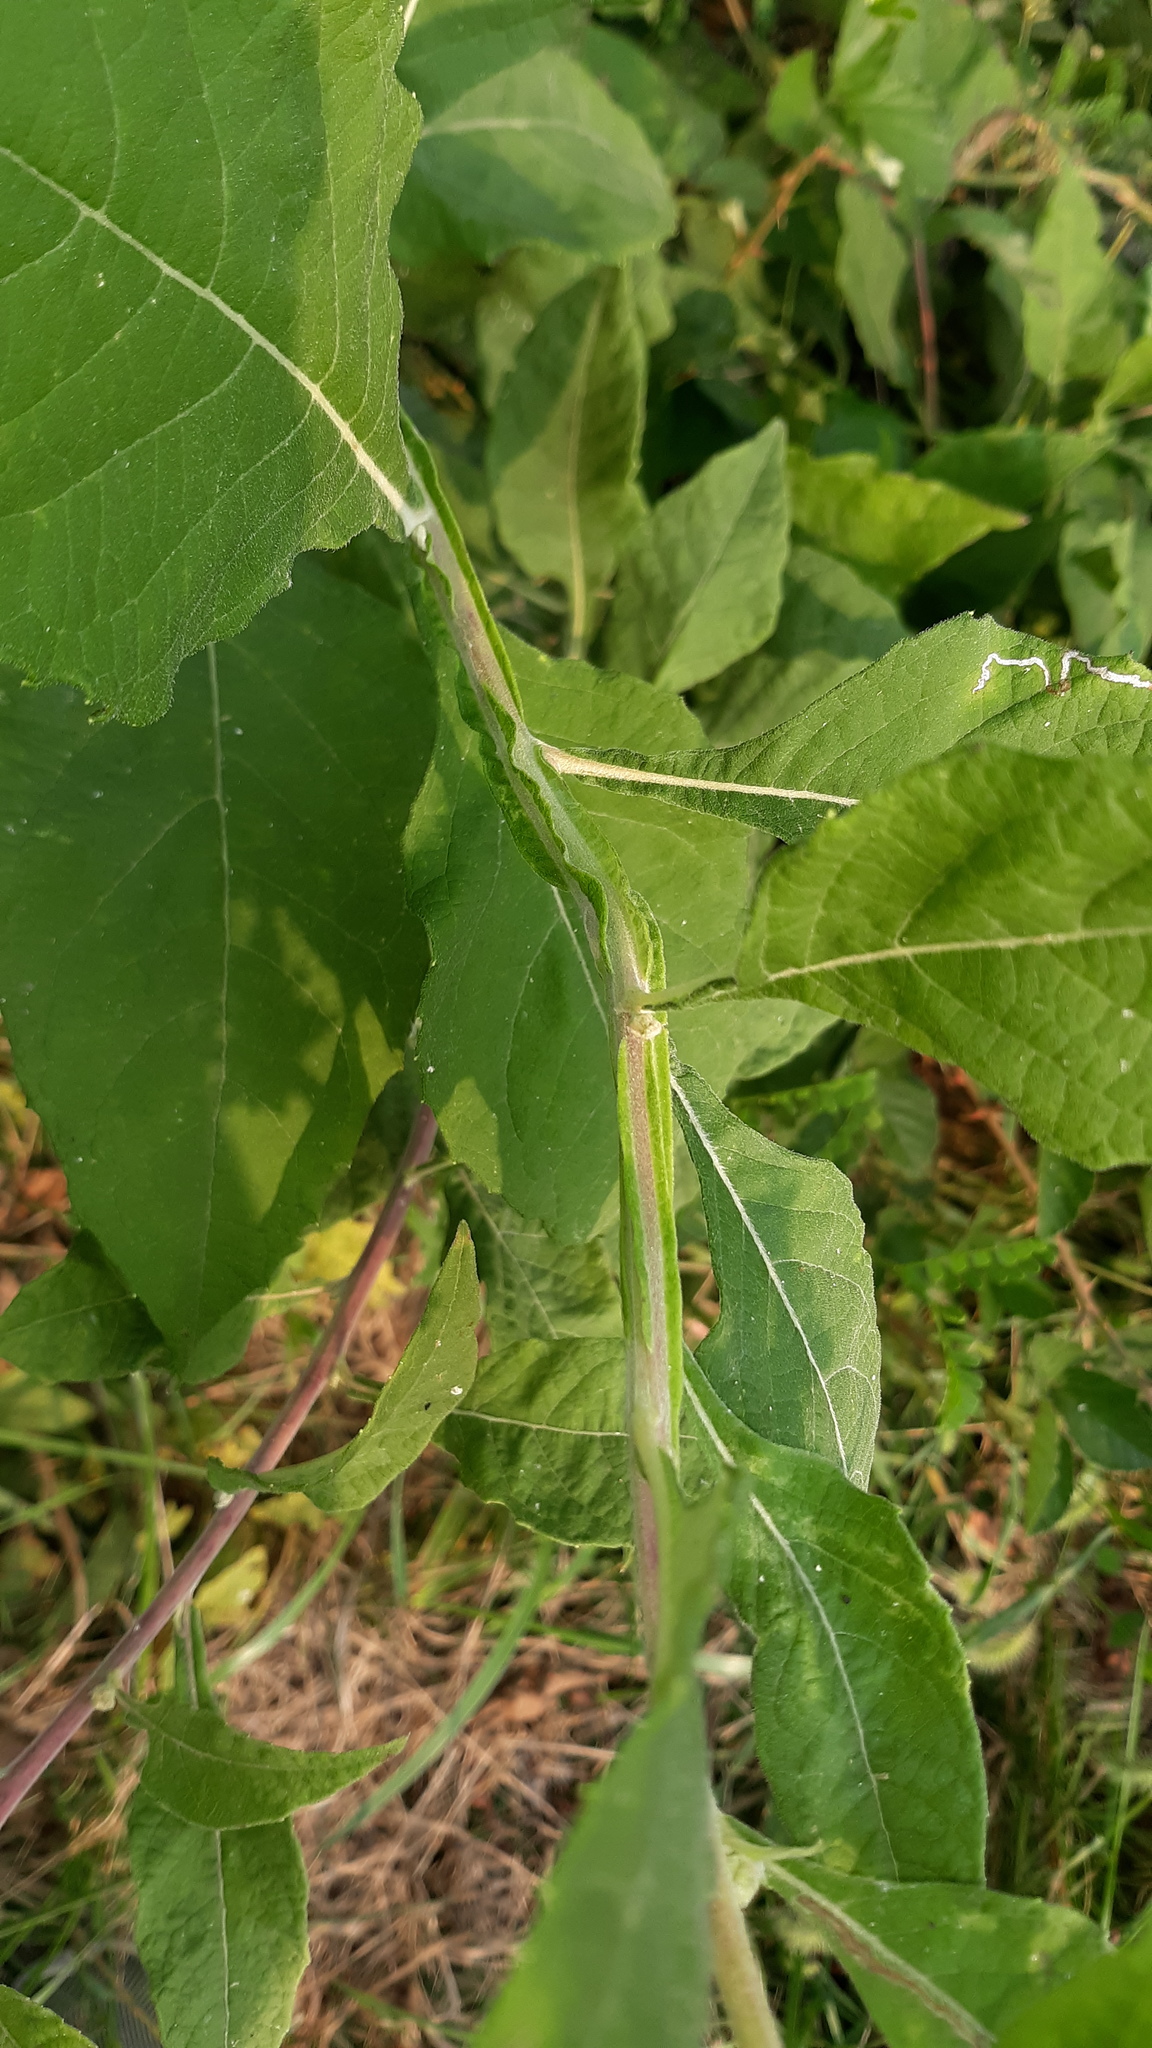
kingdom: Plantae
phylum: Tracheophyta
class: Magnoliopsida
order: Asterales
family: Asteraceae
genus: Verbesina
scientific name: Verbesina virginica
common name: Frostweed
